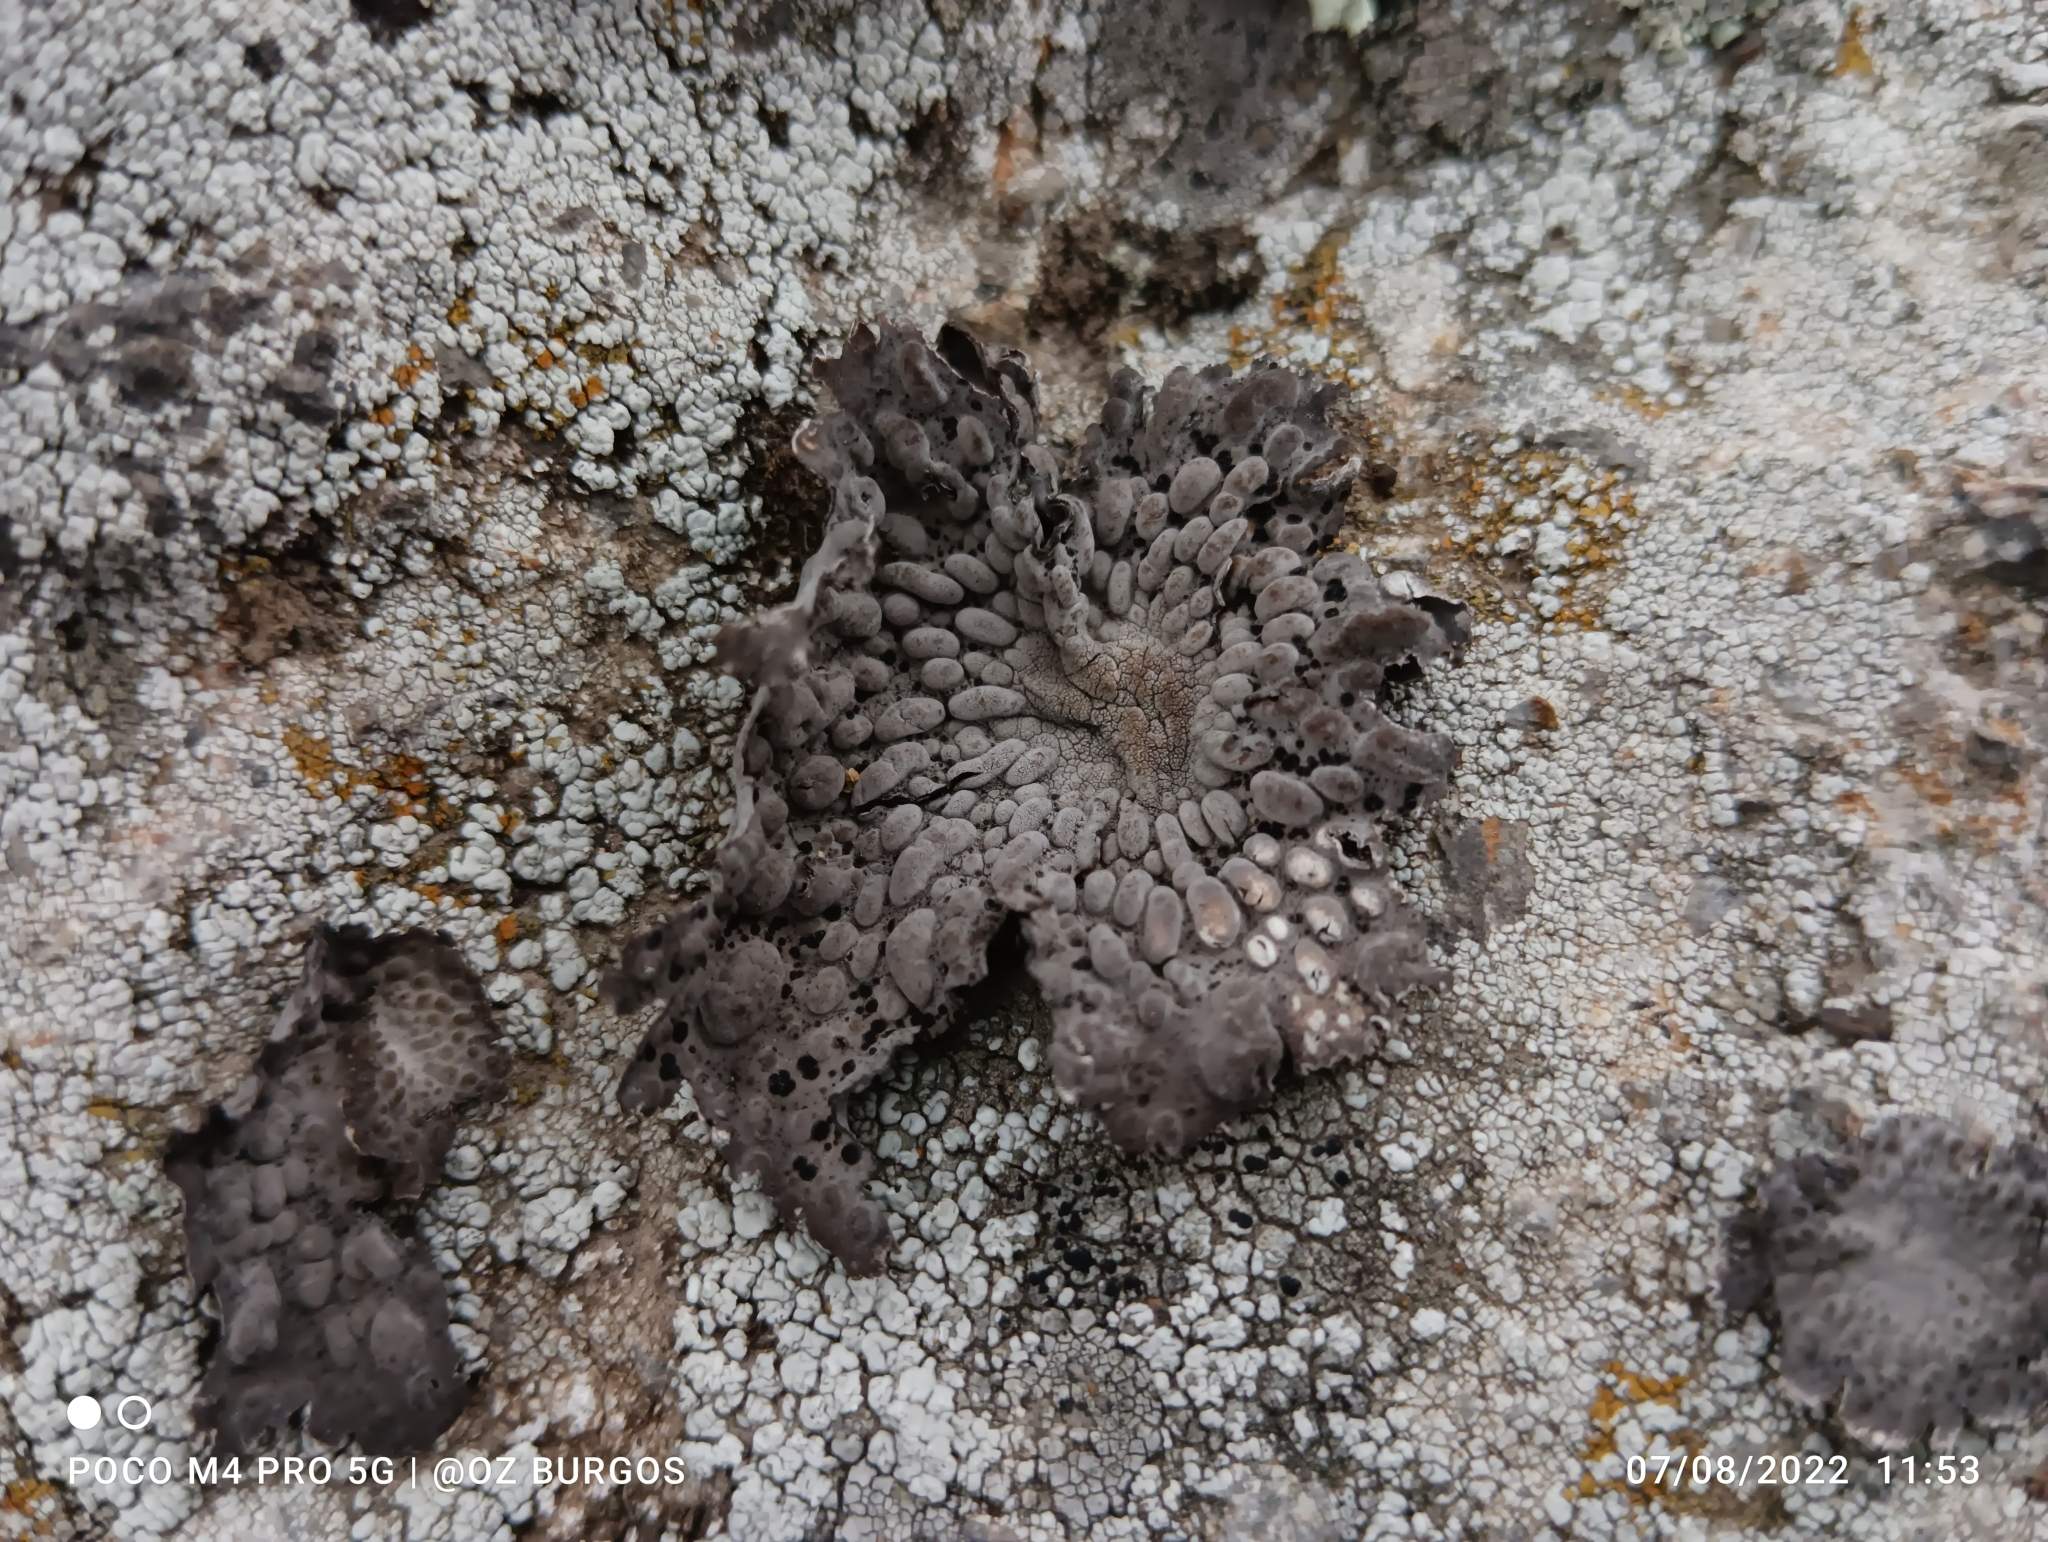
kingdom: Fungi
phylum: Ascomycota
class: Lecanoromycetes
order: Umbilicariales
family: Umbilicariaceae
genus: Lasallia
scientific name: Lasallia papulosa
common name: Common toadskin lichen
